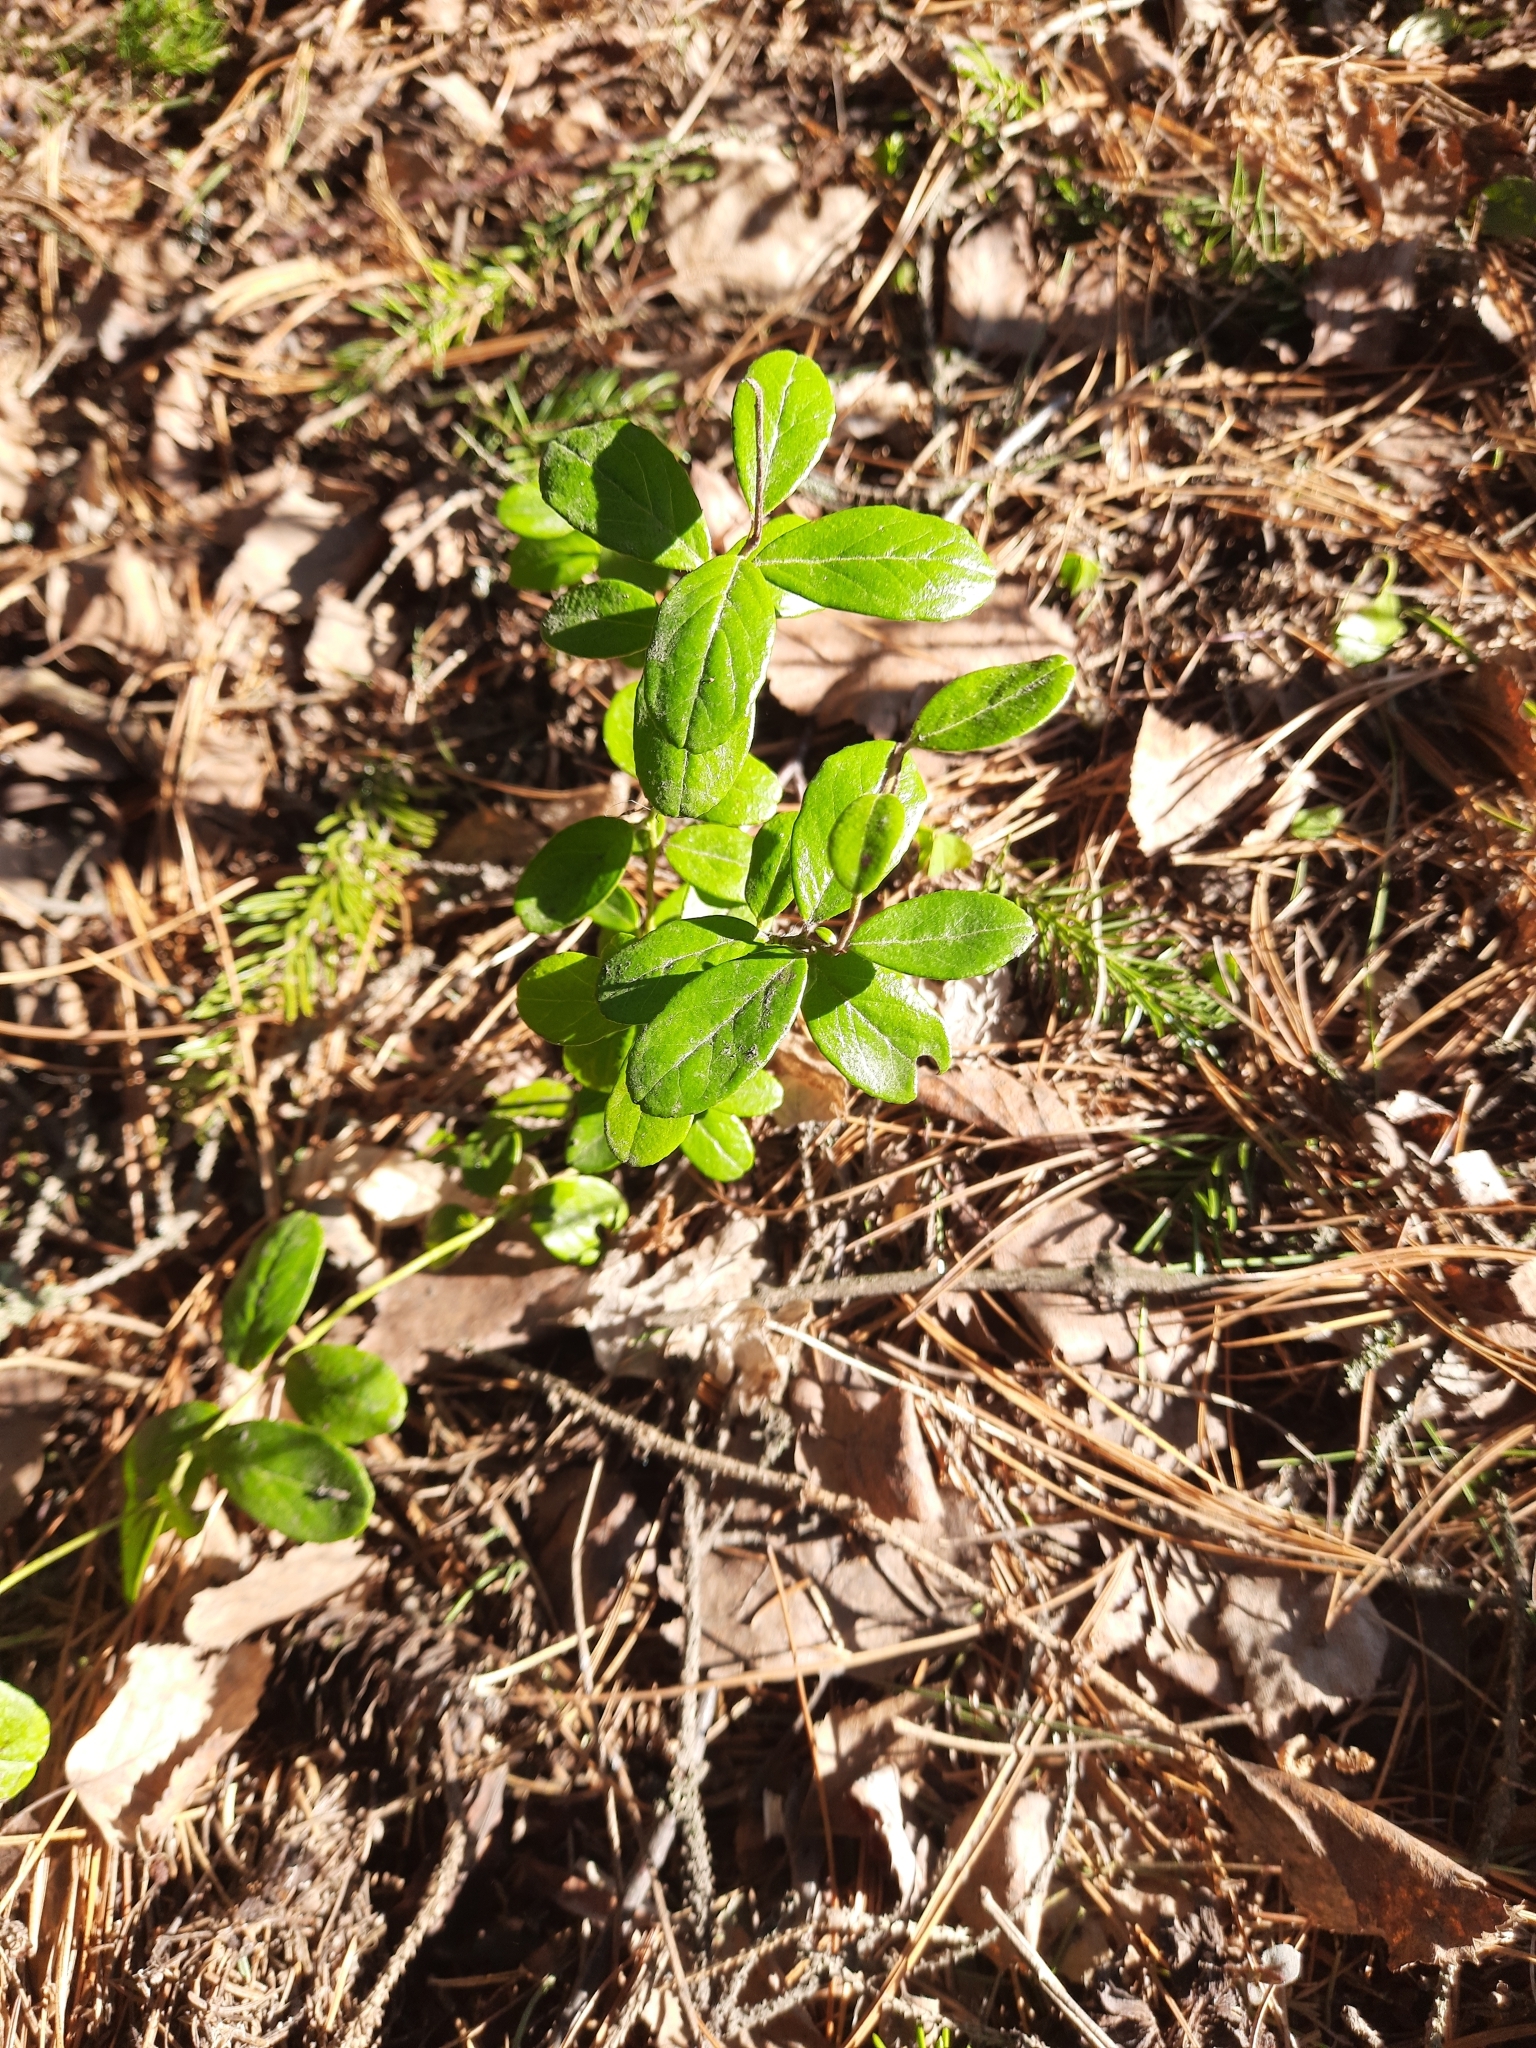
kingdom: Plantae
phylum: Tracheophyta
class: Magnoliopsida
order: Ericales
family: Ericaceae
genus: Vaccinium
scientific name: Vaccinium vitis-idaea
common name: Cowberry
